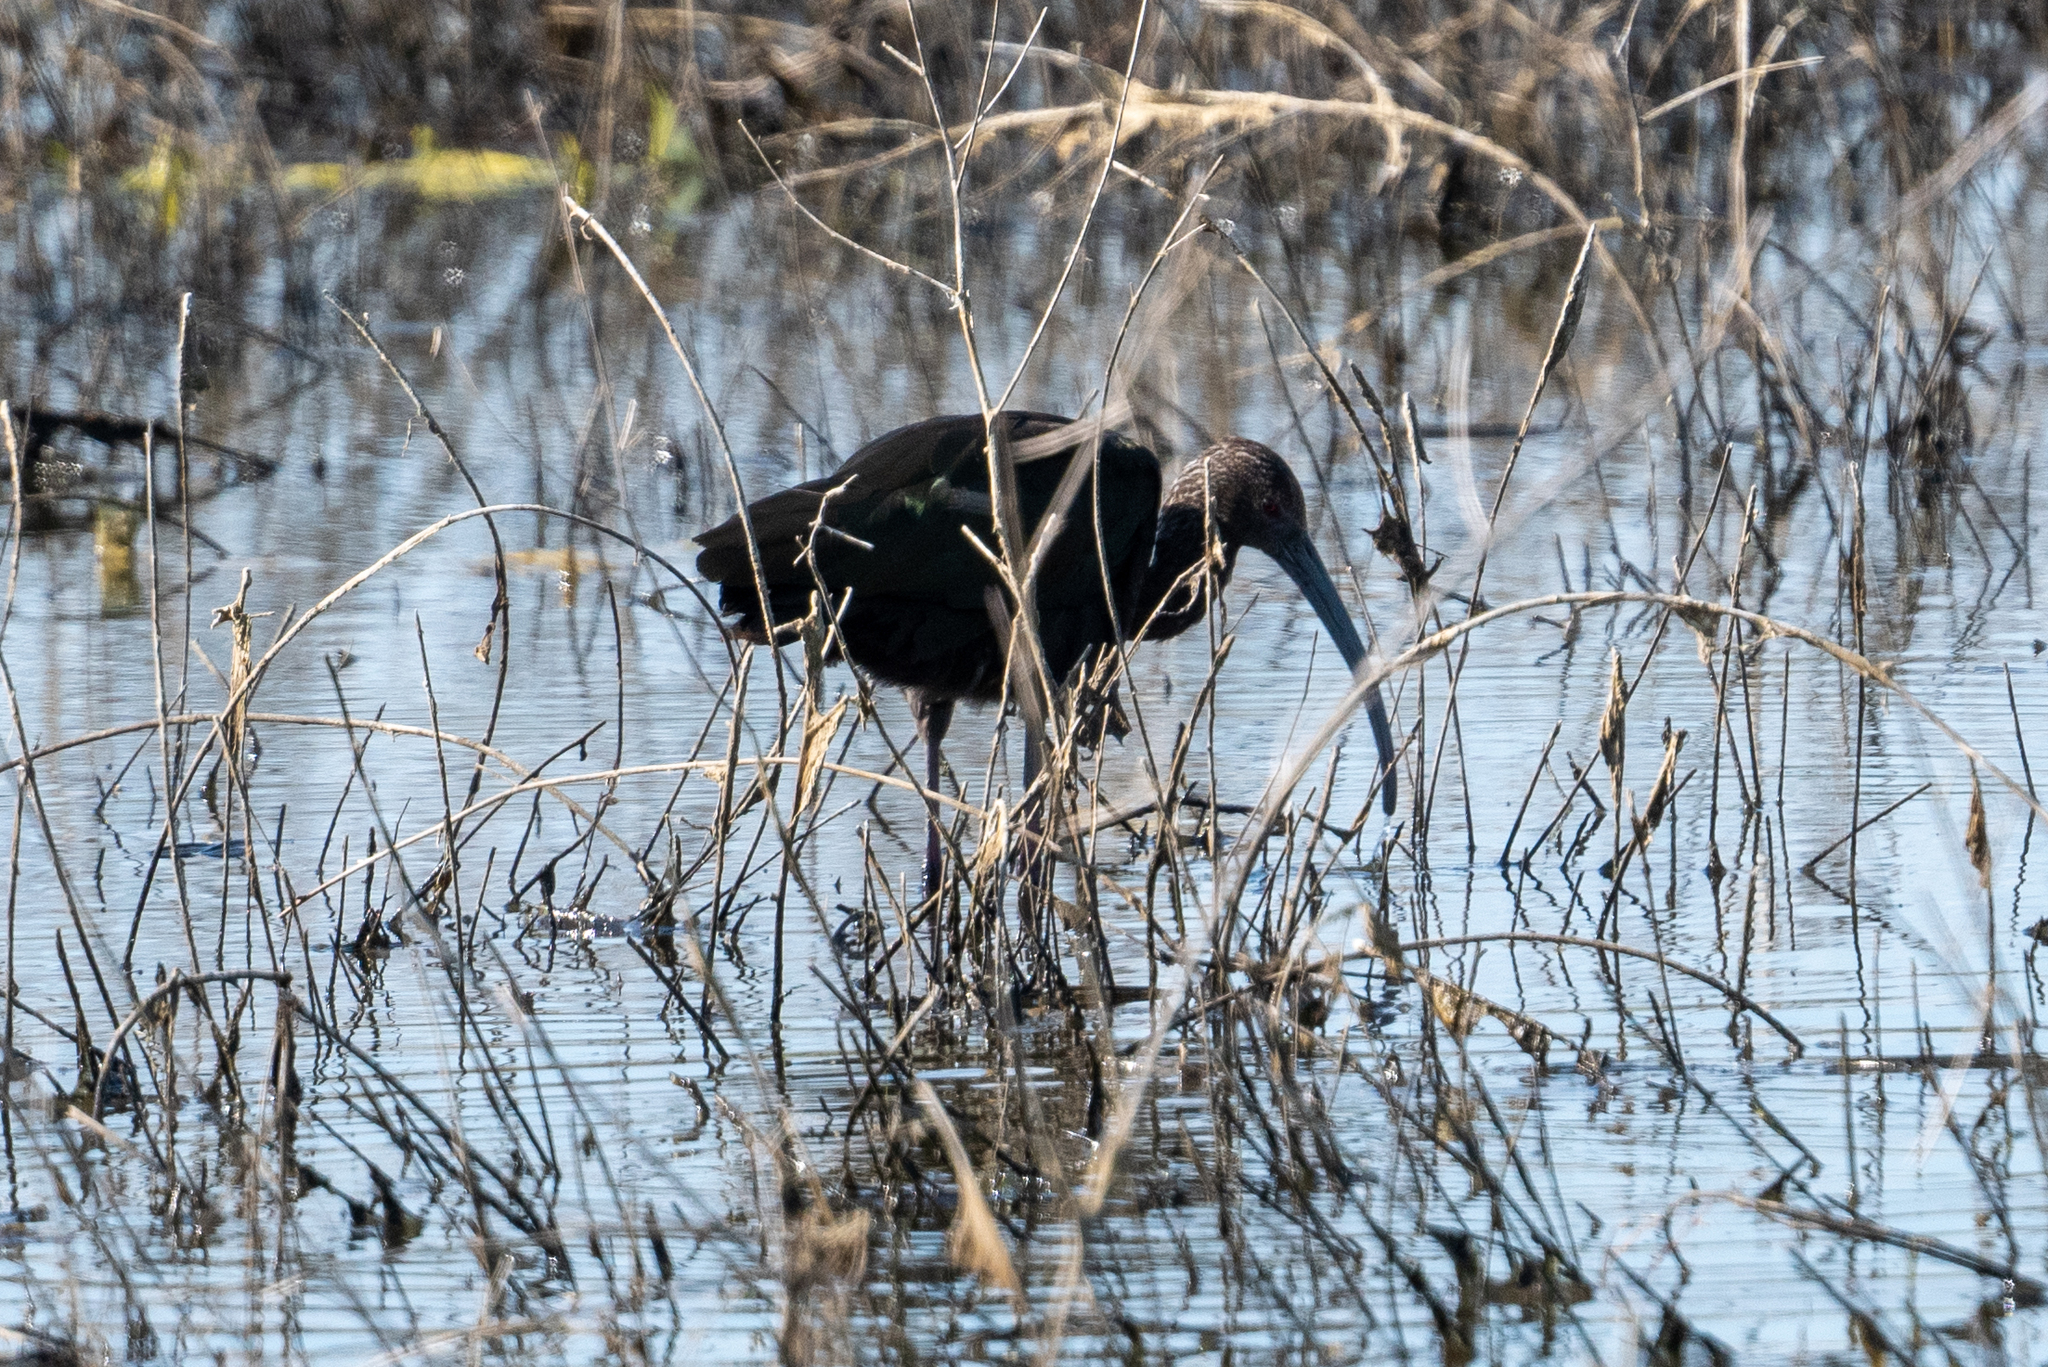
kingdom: Animalia
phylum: Chordata
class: Aves
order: Pelecaniformes
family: Threskiornithidae
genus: Plegadis
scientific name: Plegadis chihi
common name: White-faced ibis
